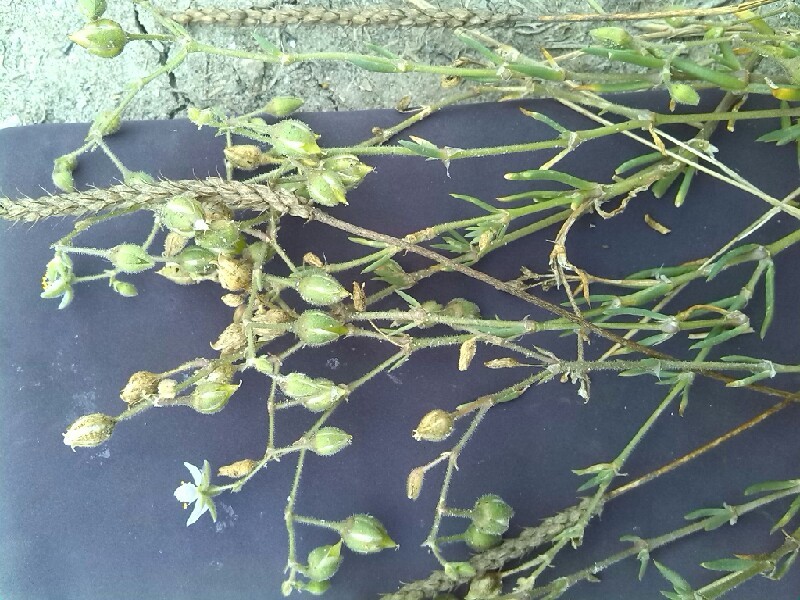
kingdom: Plantae
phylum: Tracheophyta
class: Magnoliopsida
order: Caryophyllales
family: Caryophyllaceae
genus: Spergularia
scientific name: Spergularia rubra
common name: Red sand-spurrey
